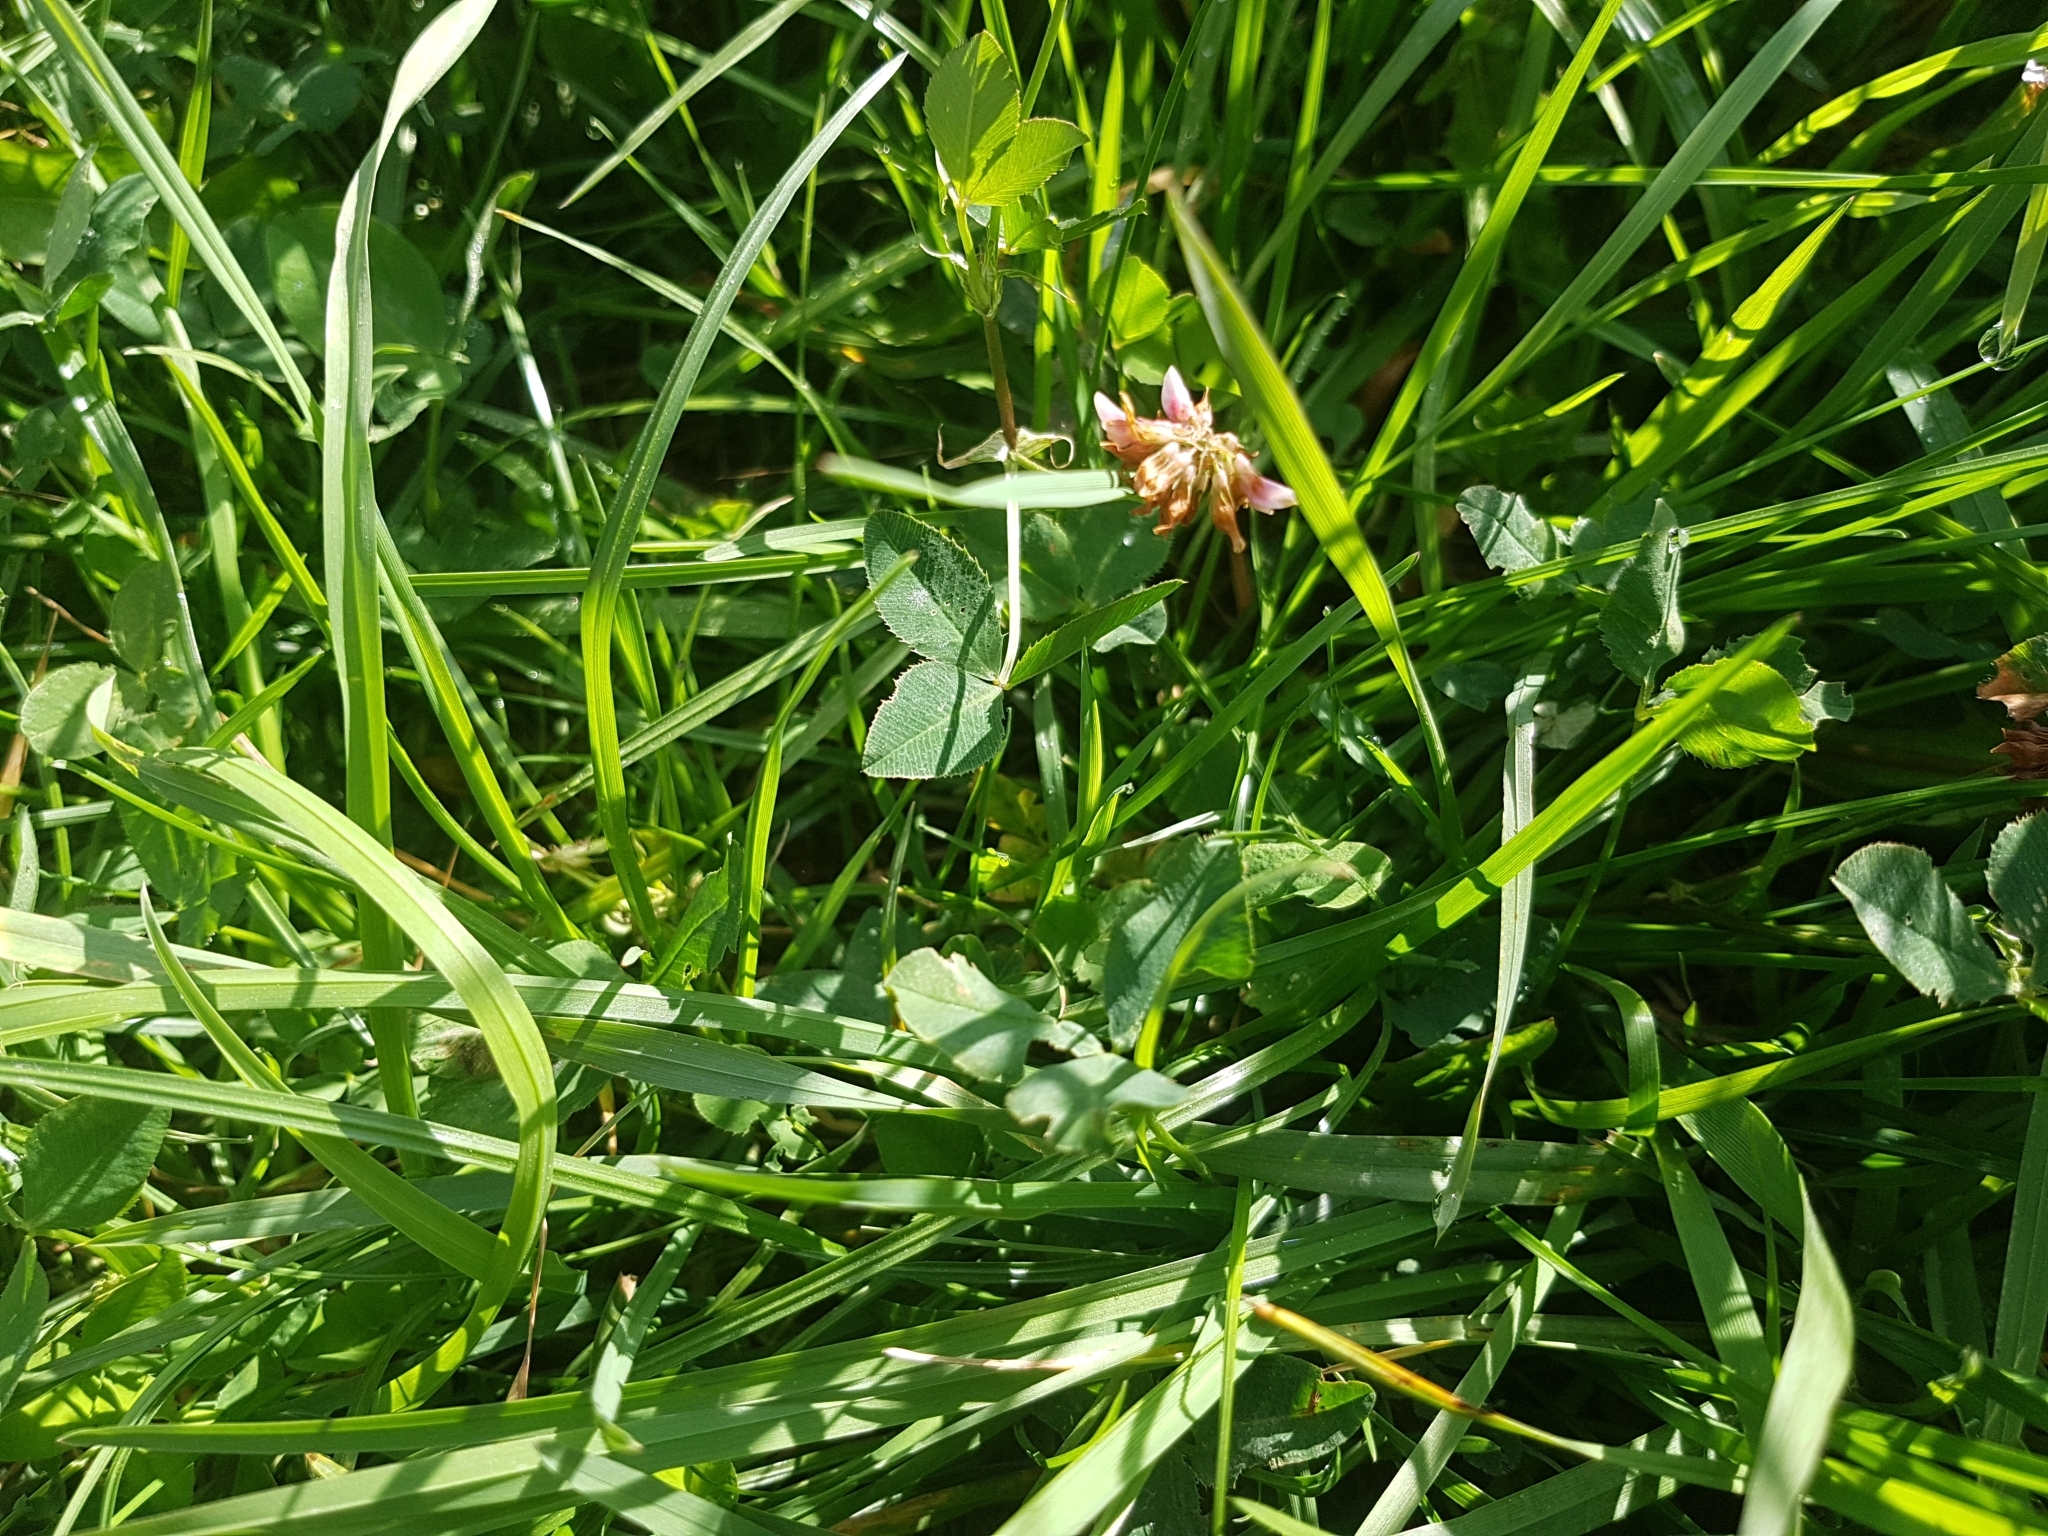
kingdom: Plantae
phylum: Tracheophyta
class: Magnoliopsida
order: Fabales
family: Fabaceae
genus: Trifolium
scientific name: Trifolium hybridum
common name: Alsike clover
